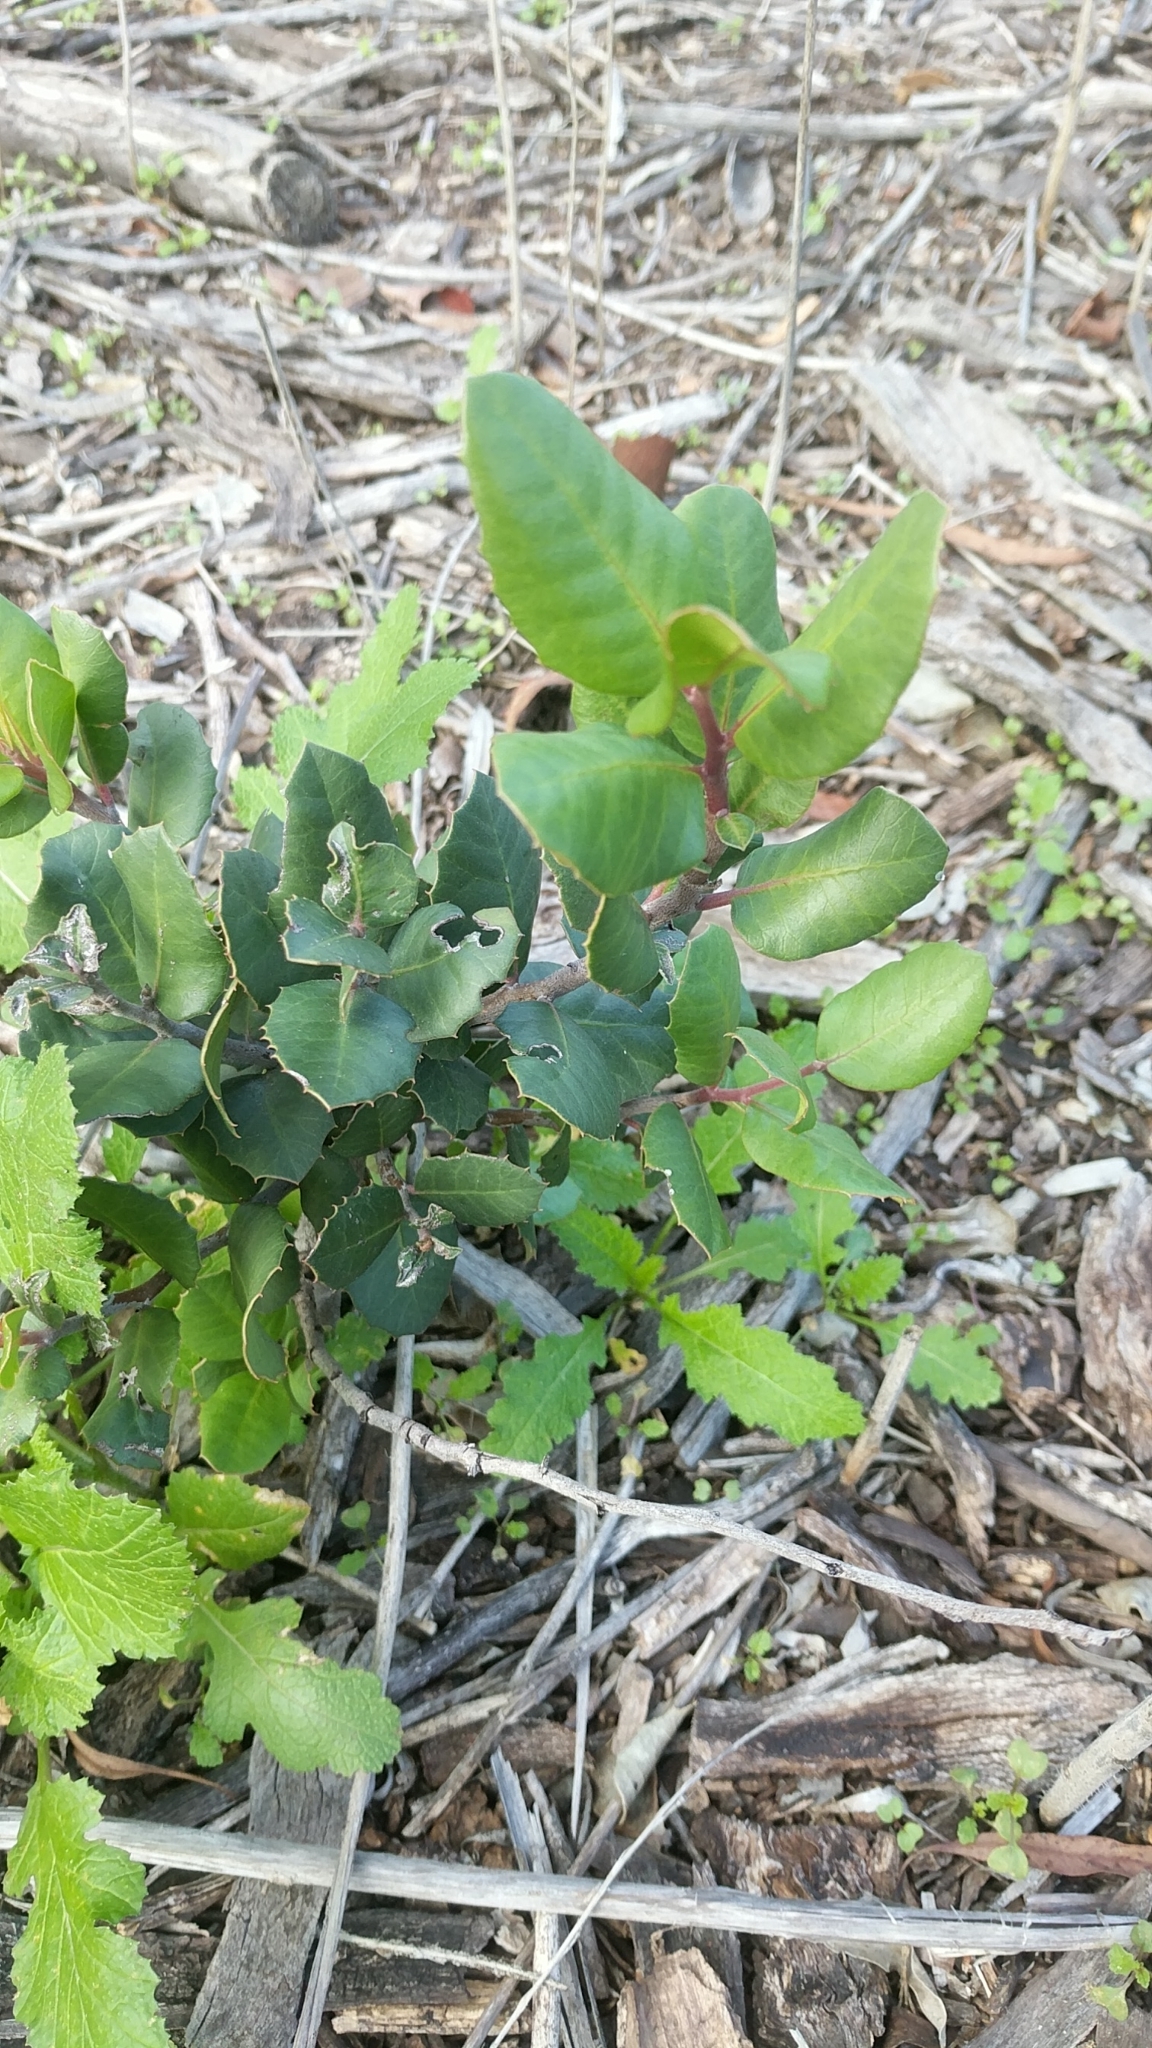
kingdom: Plantae
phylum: Tracheophyta
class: Magnoliopsida
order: Sapindales
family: Anacardiaceae
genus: Rhus
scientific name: Rhus integrifolia
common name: Lemonade sumac
